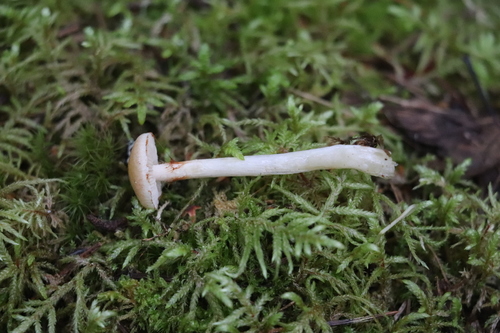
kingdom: Fungi
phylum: Basidiomycota
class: Agaricomycetes
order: Agaricales
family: Cortinariaceae
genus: Thaxterogaster
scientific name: Thaxterogaster vibratilis
